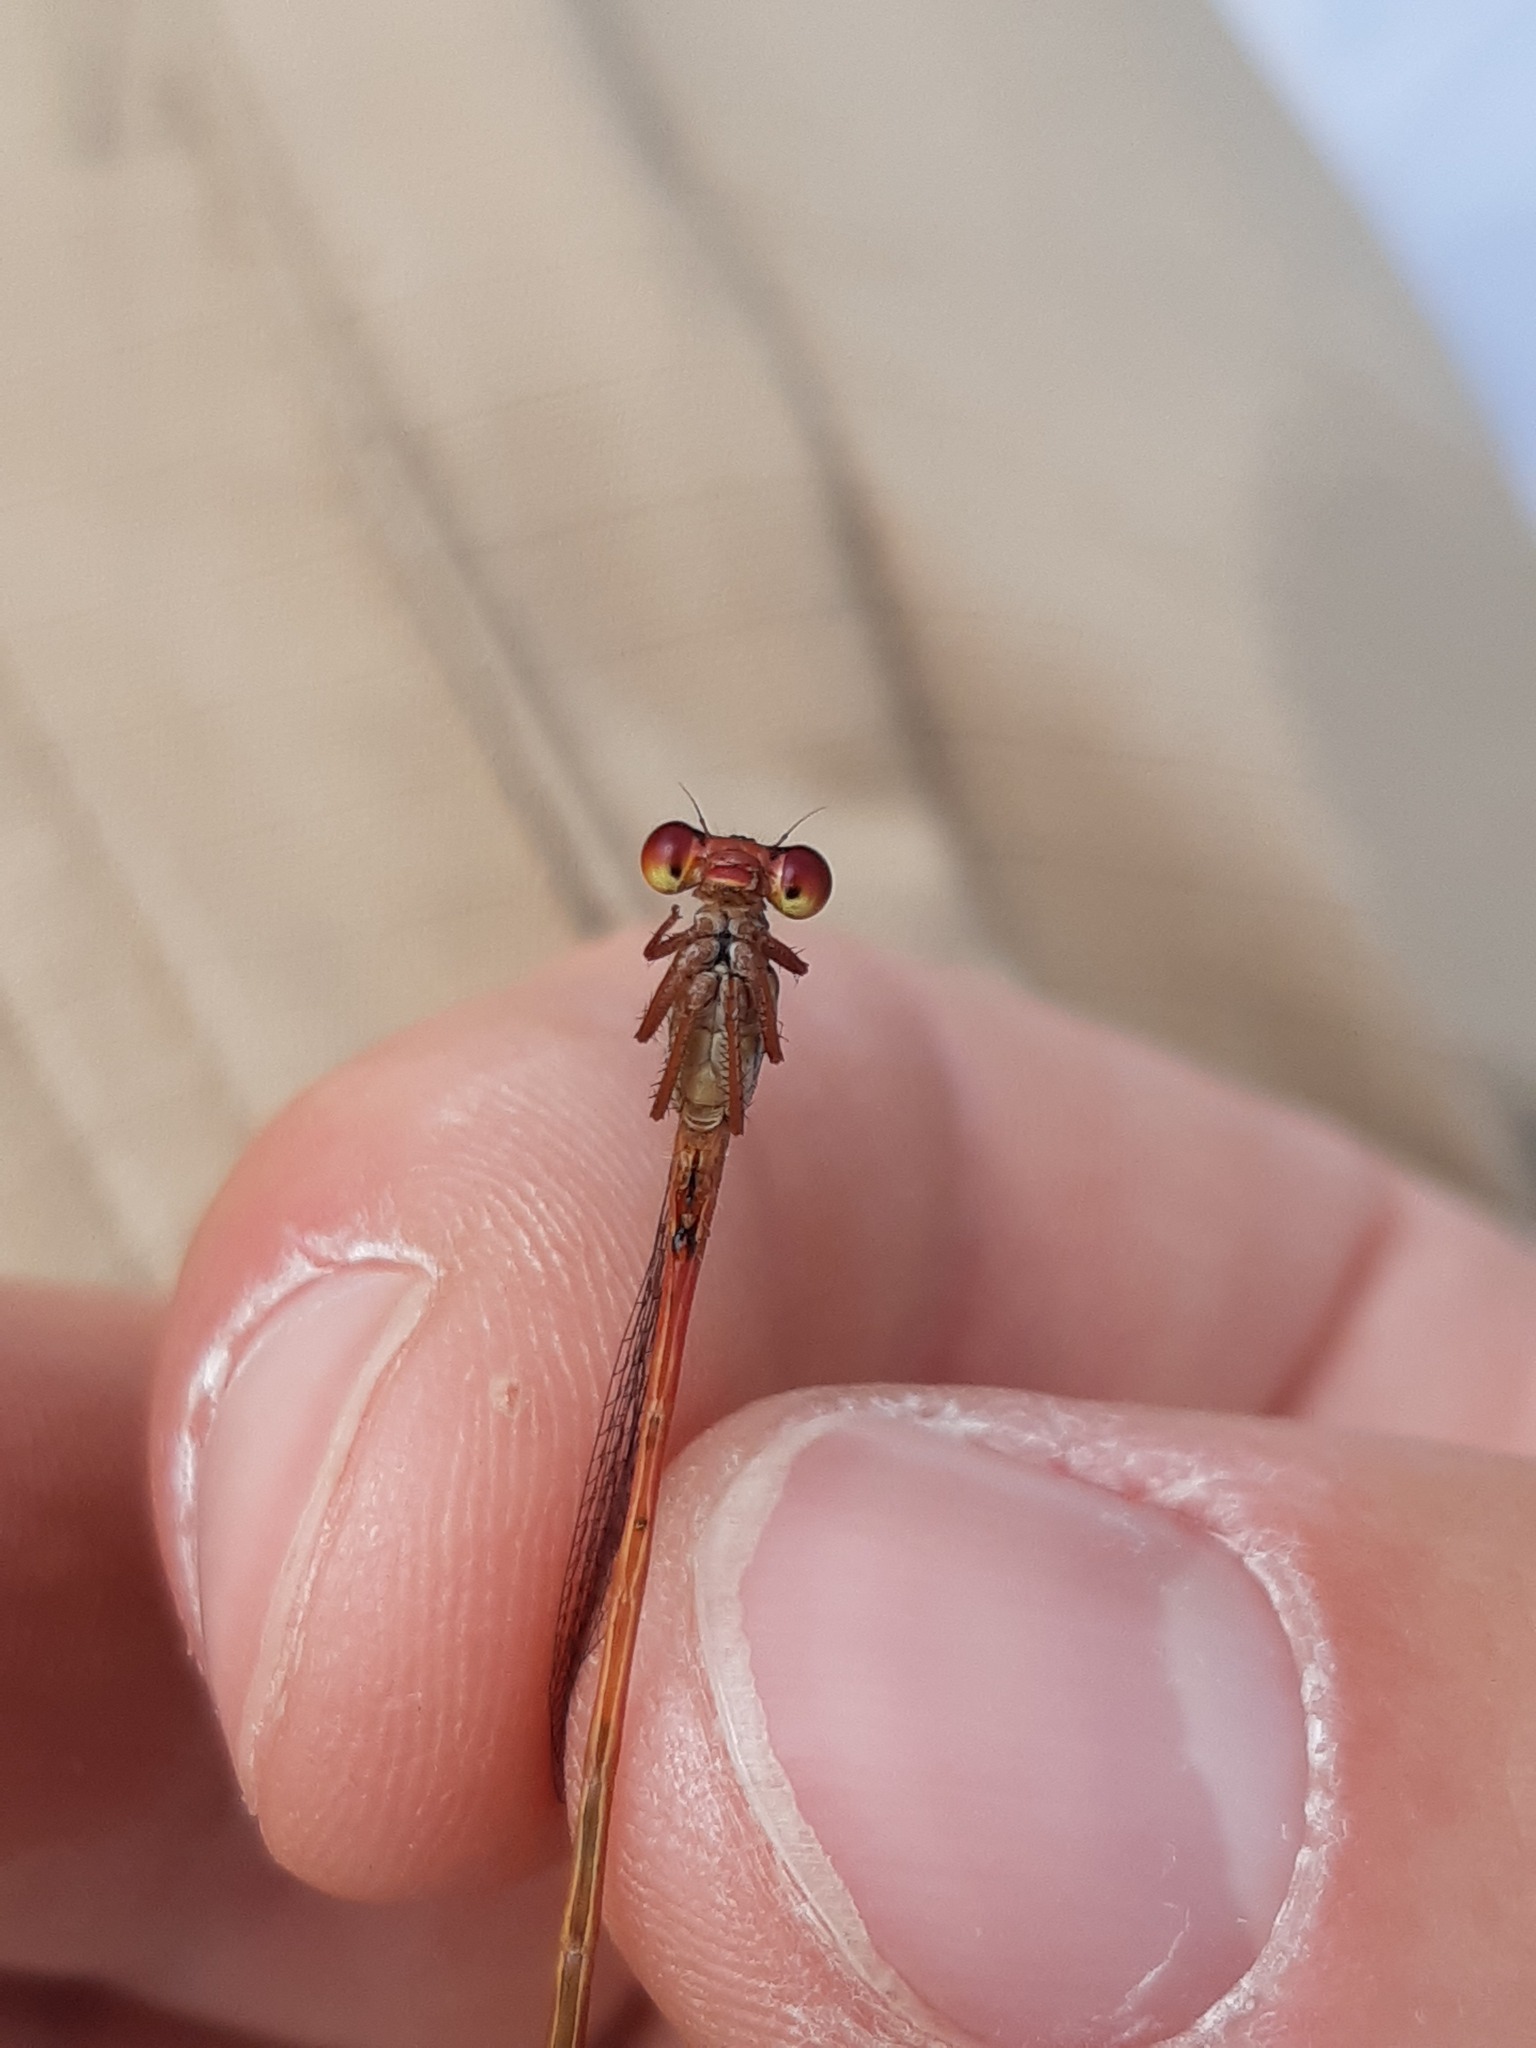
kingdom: Animalia
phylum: Arthropoda
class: Insecta
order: Odonata
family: Coenagrionidae
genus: Ceriagrion
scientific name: Ceriagrion tenellum
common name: Small red damselfly
